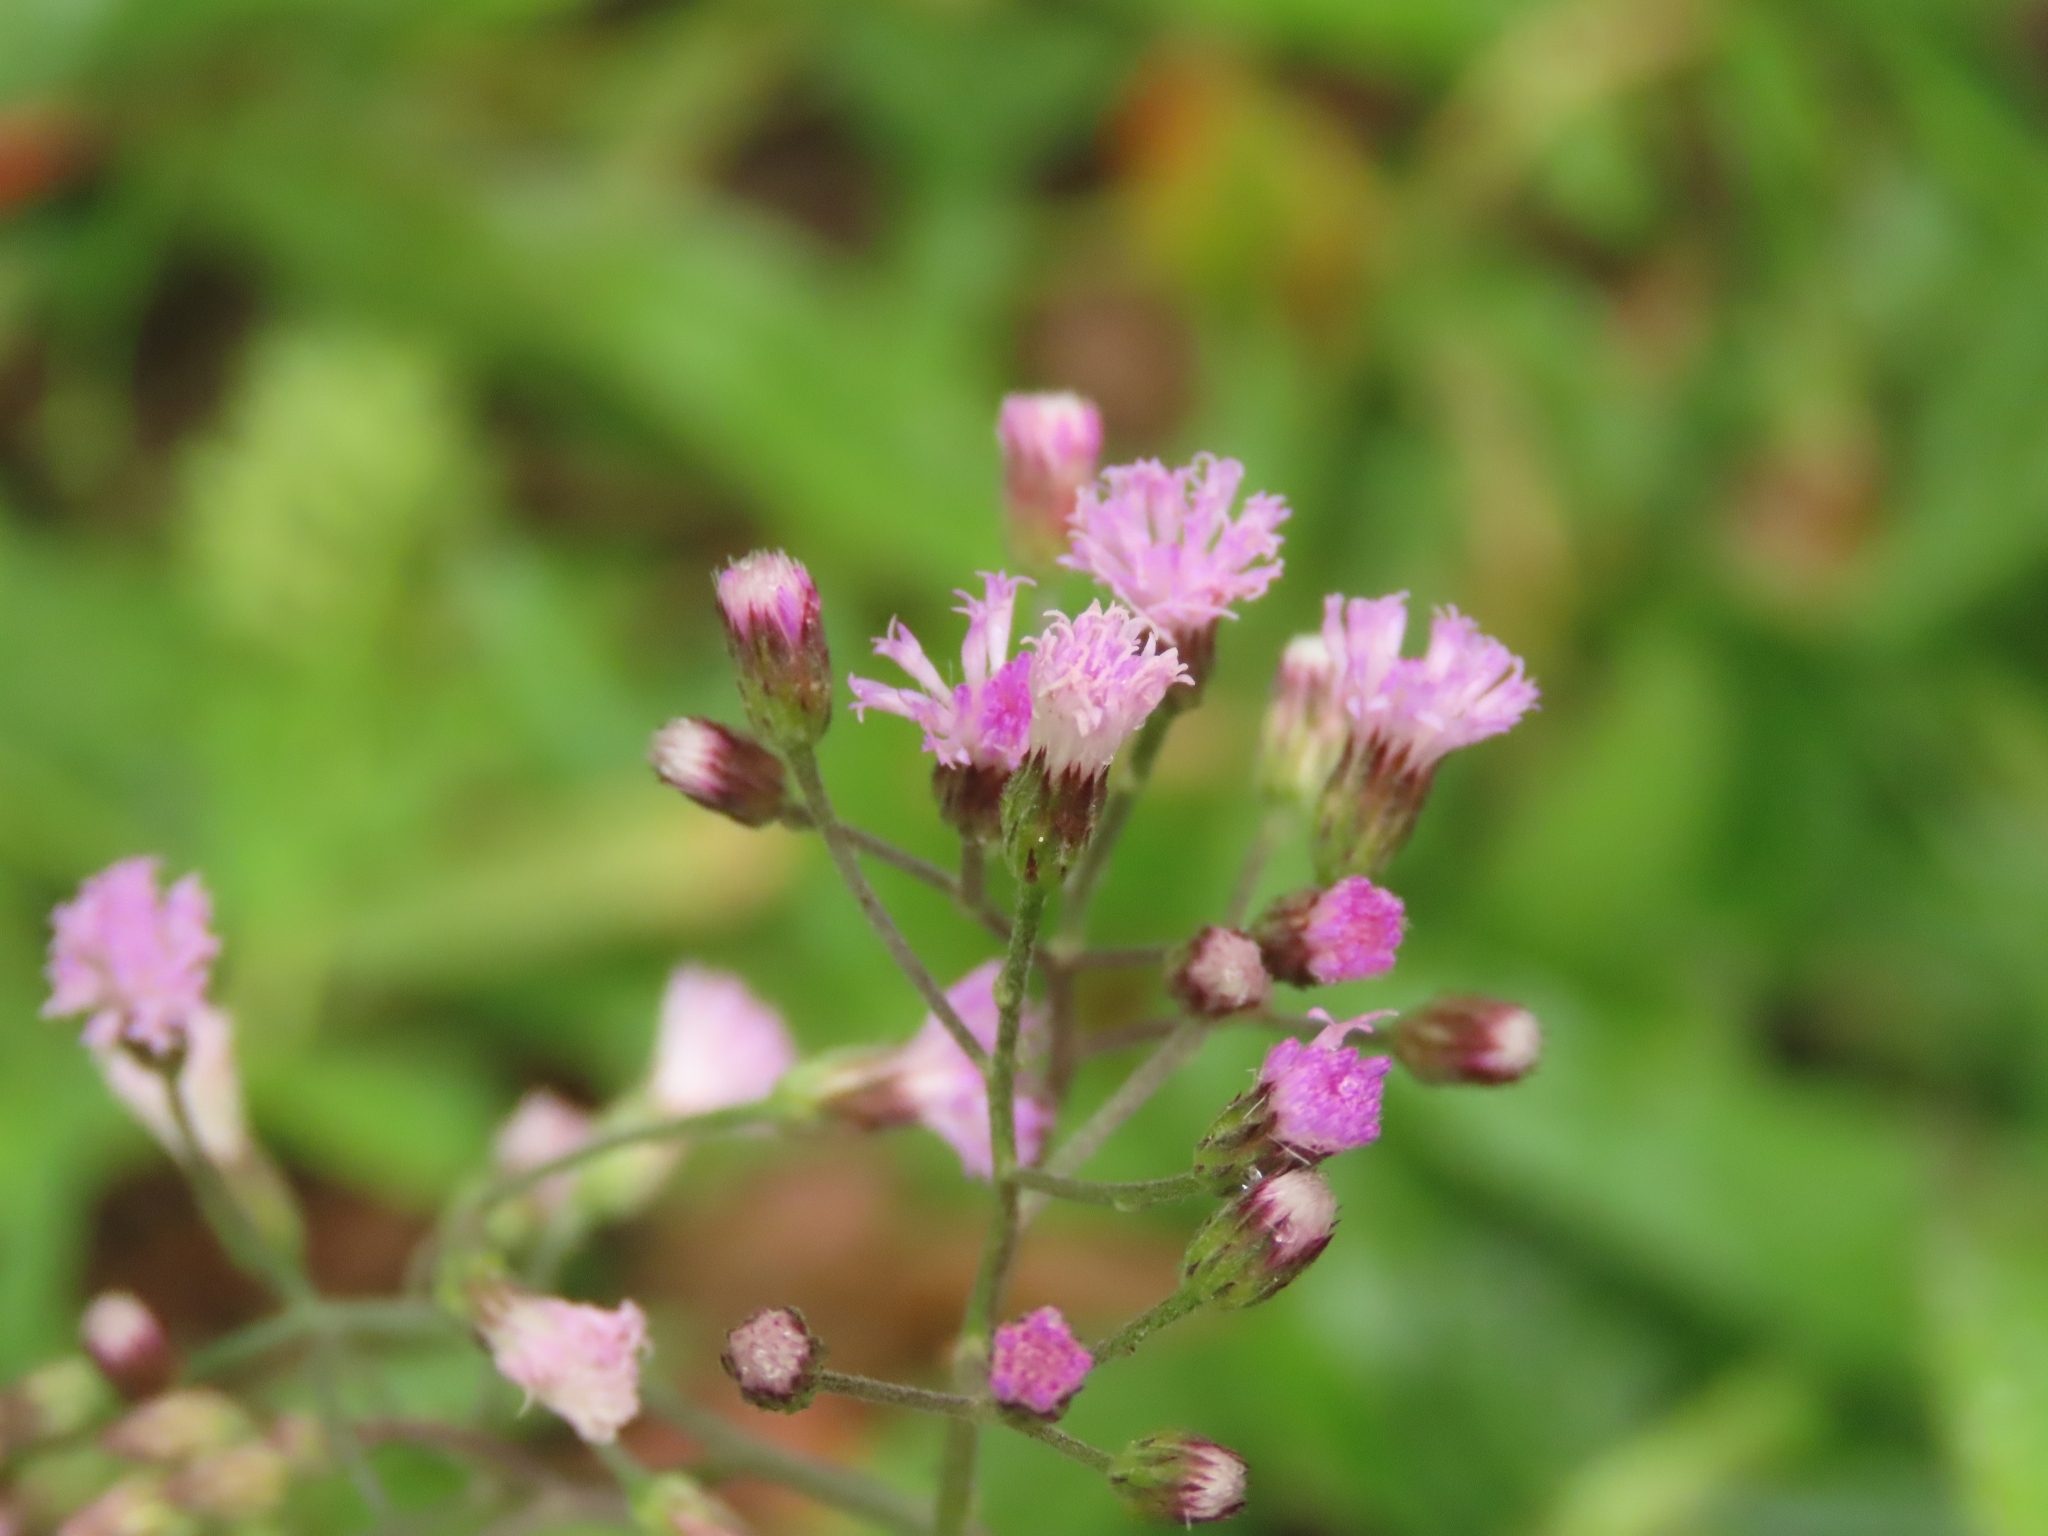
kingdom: Plantae
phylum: Tracheophyta
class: Magnoliopsida
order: Asterales
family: Asteraceae
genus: Cyanthillium
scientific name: Cyanthillium cinereum
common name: Little ironweed
